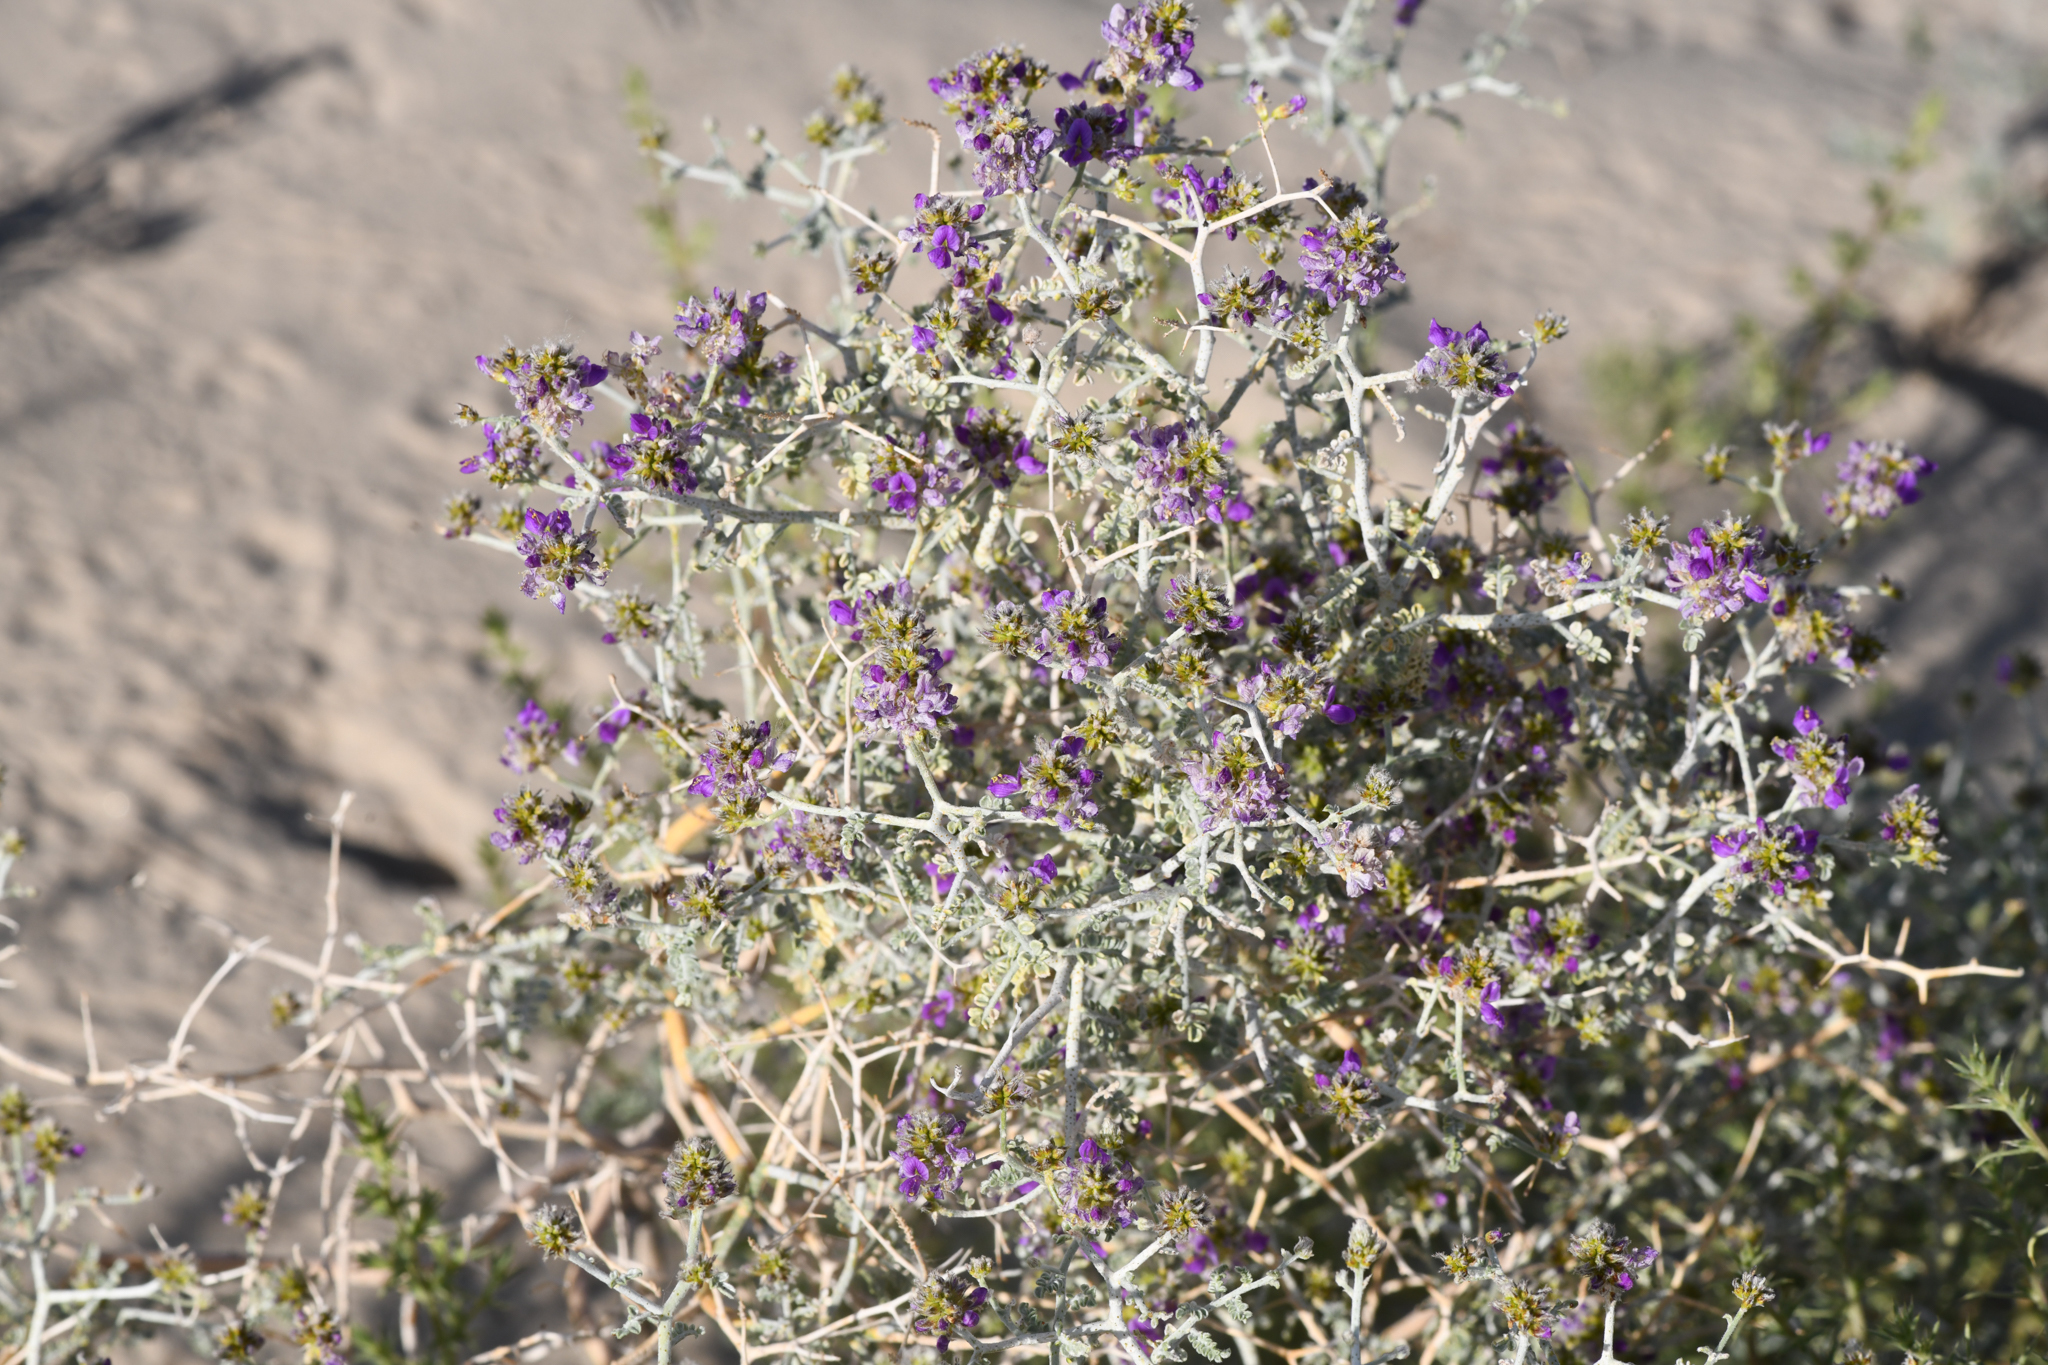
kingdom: Plantae
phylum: Tracheophyta
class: Magnoliopsida
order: Fabales
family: Fabaceae
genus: Psorothamnus
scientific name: Psorothamnus polydenius
